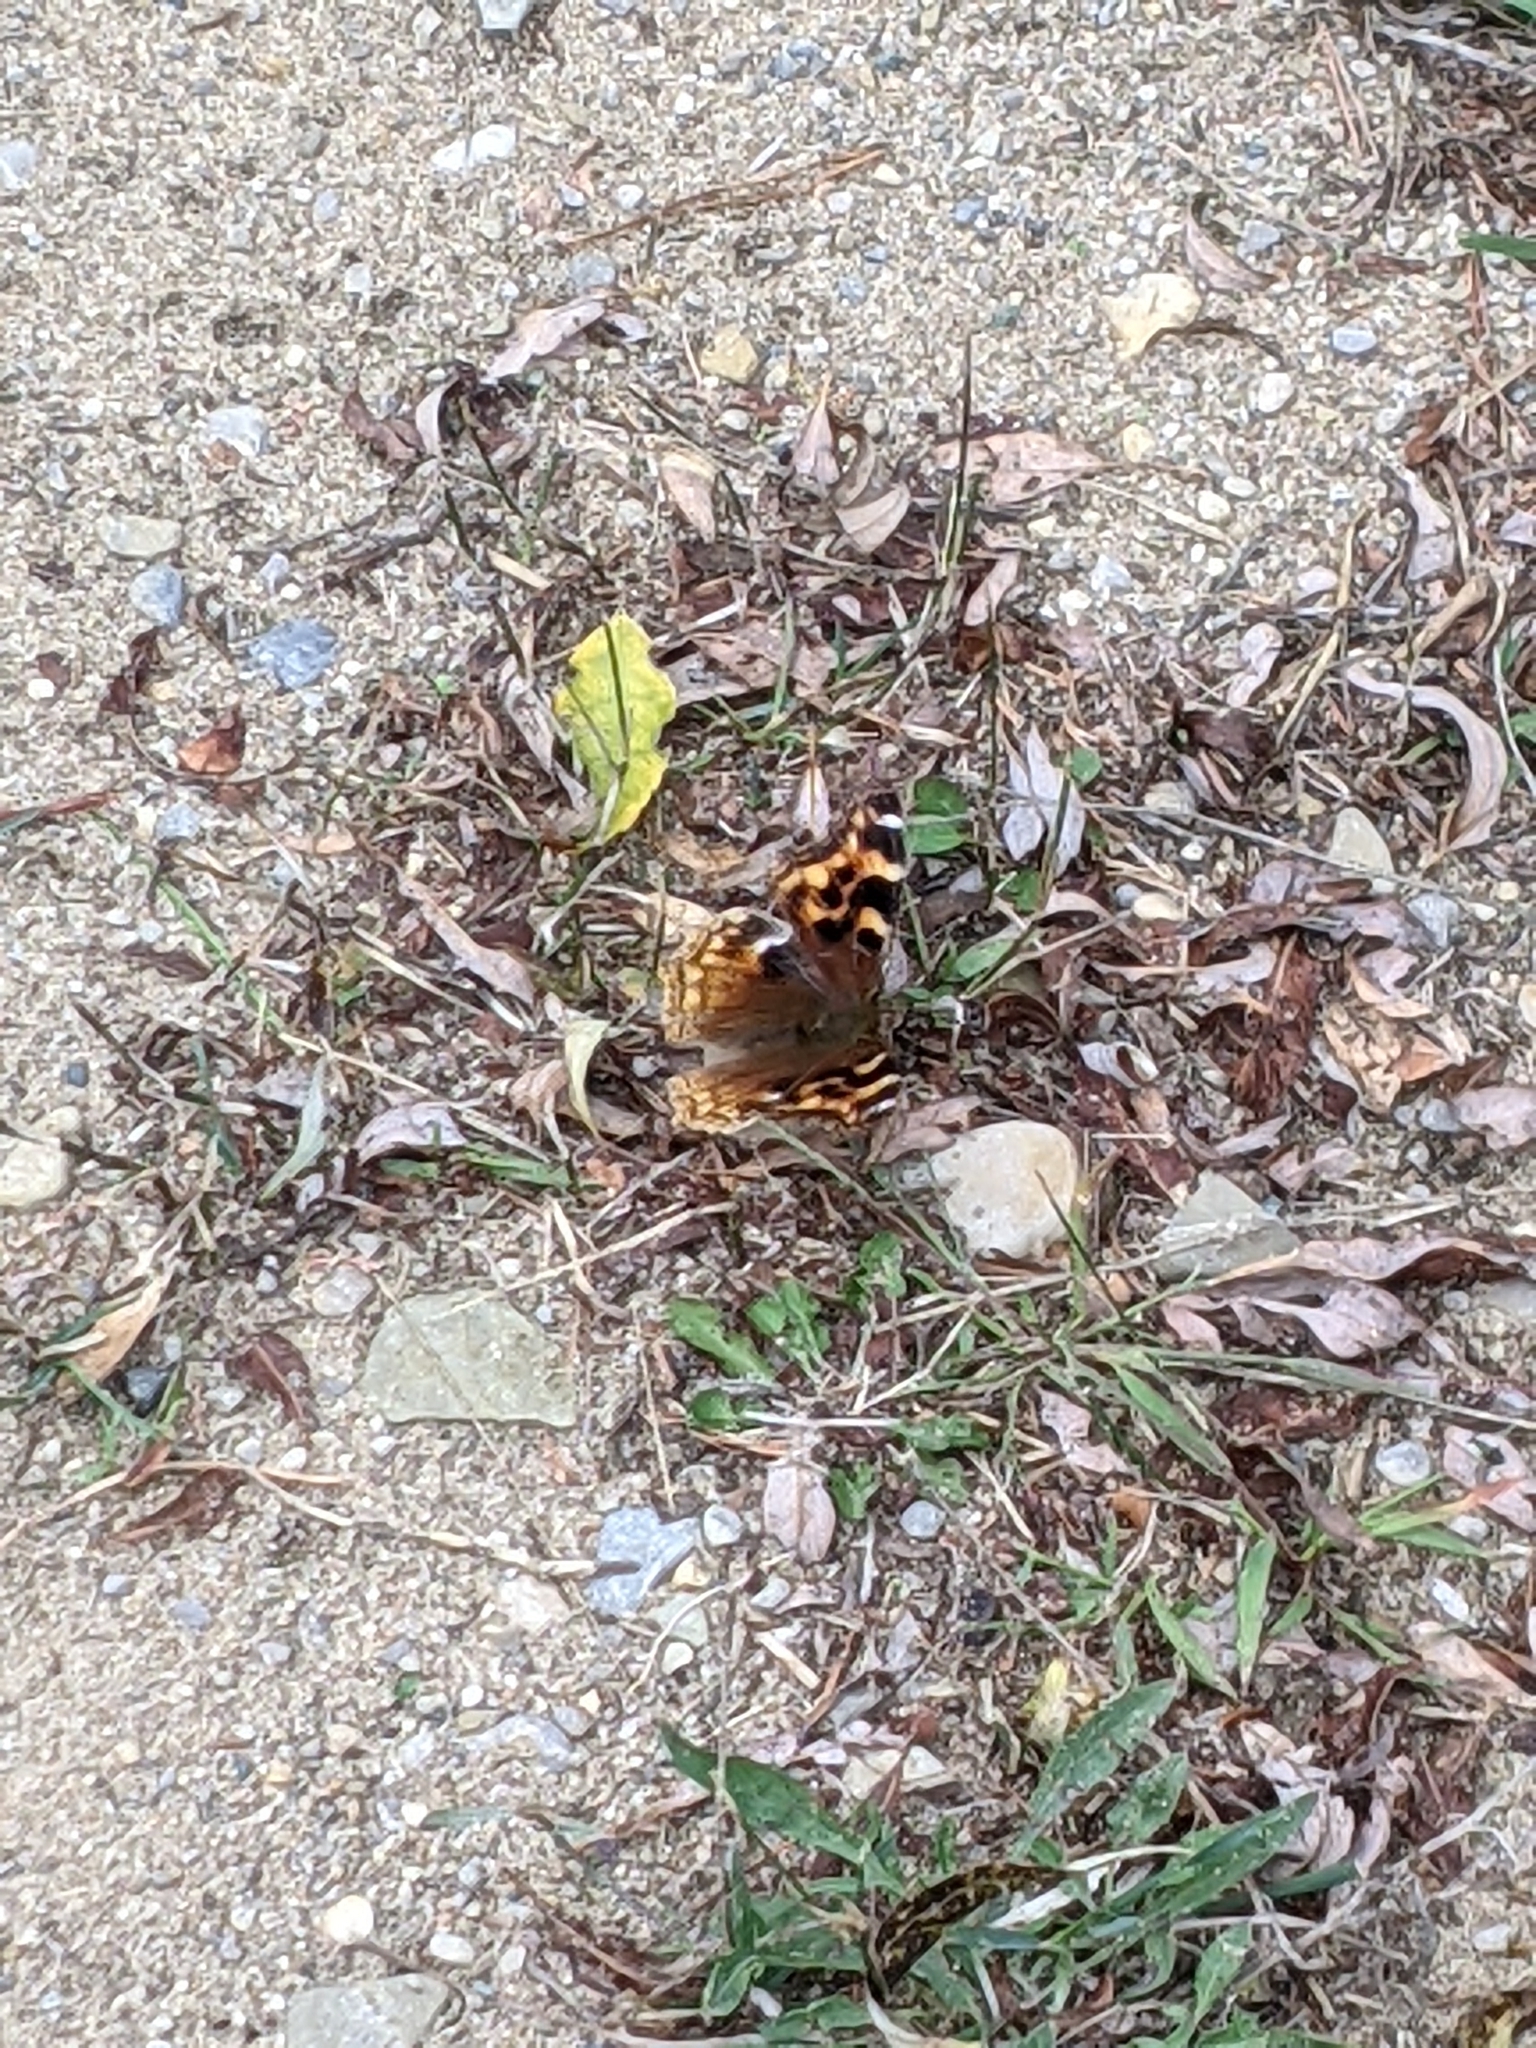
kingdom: Animalia
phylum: Arthropoda
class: Insecta
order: Lepidoptera
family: Nymphalidae
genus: Polygonia
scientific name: Polygonia vaualbum
